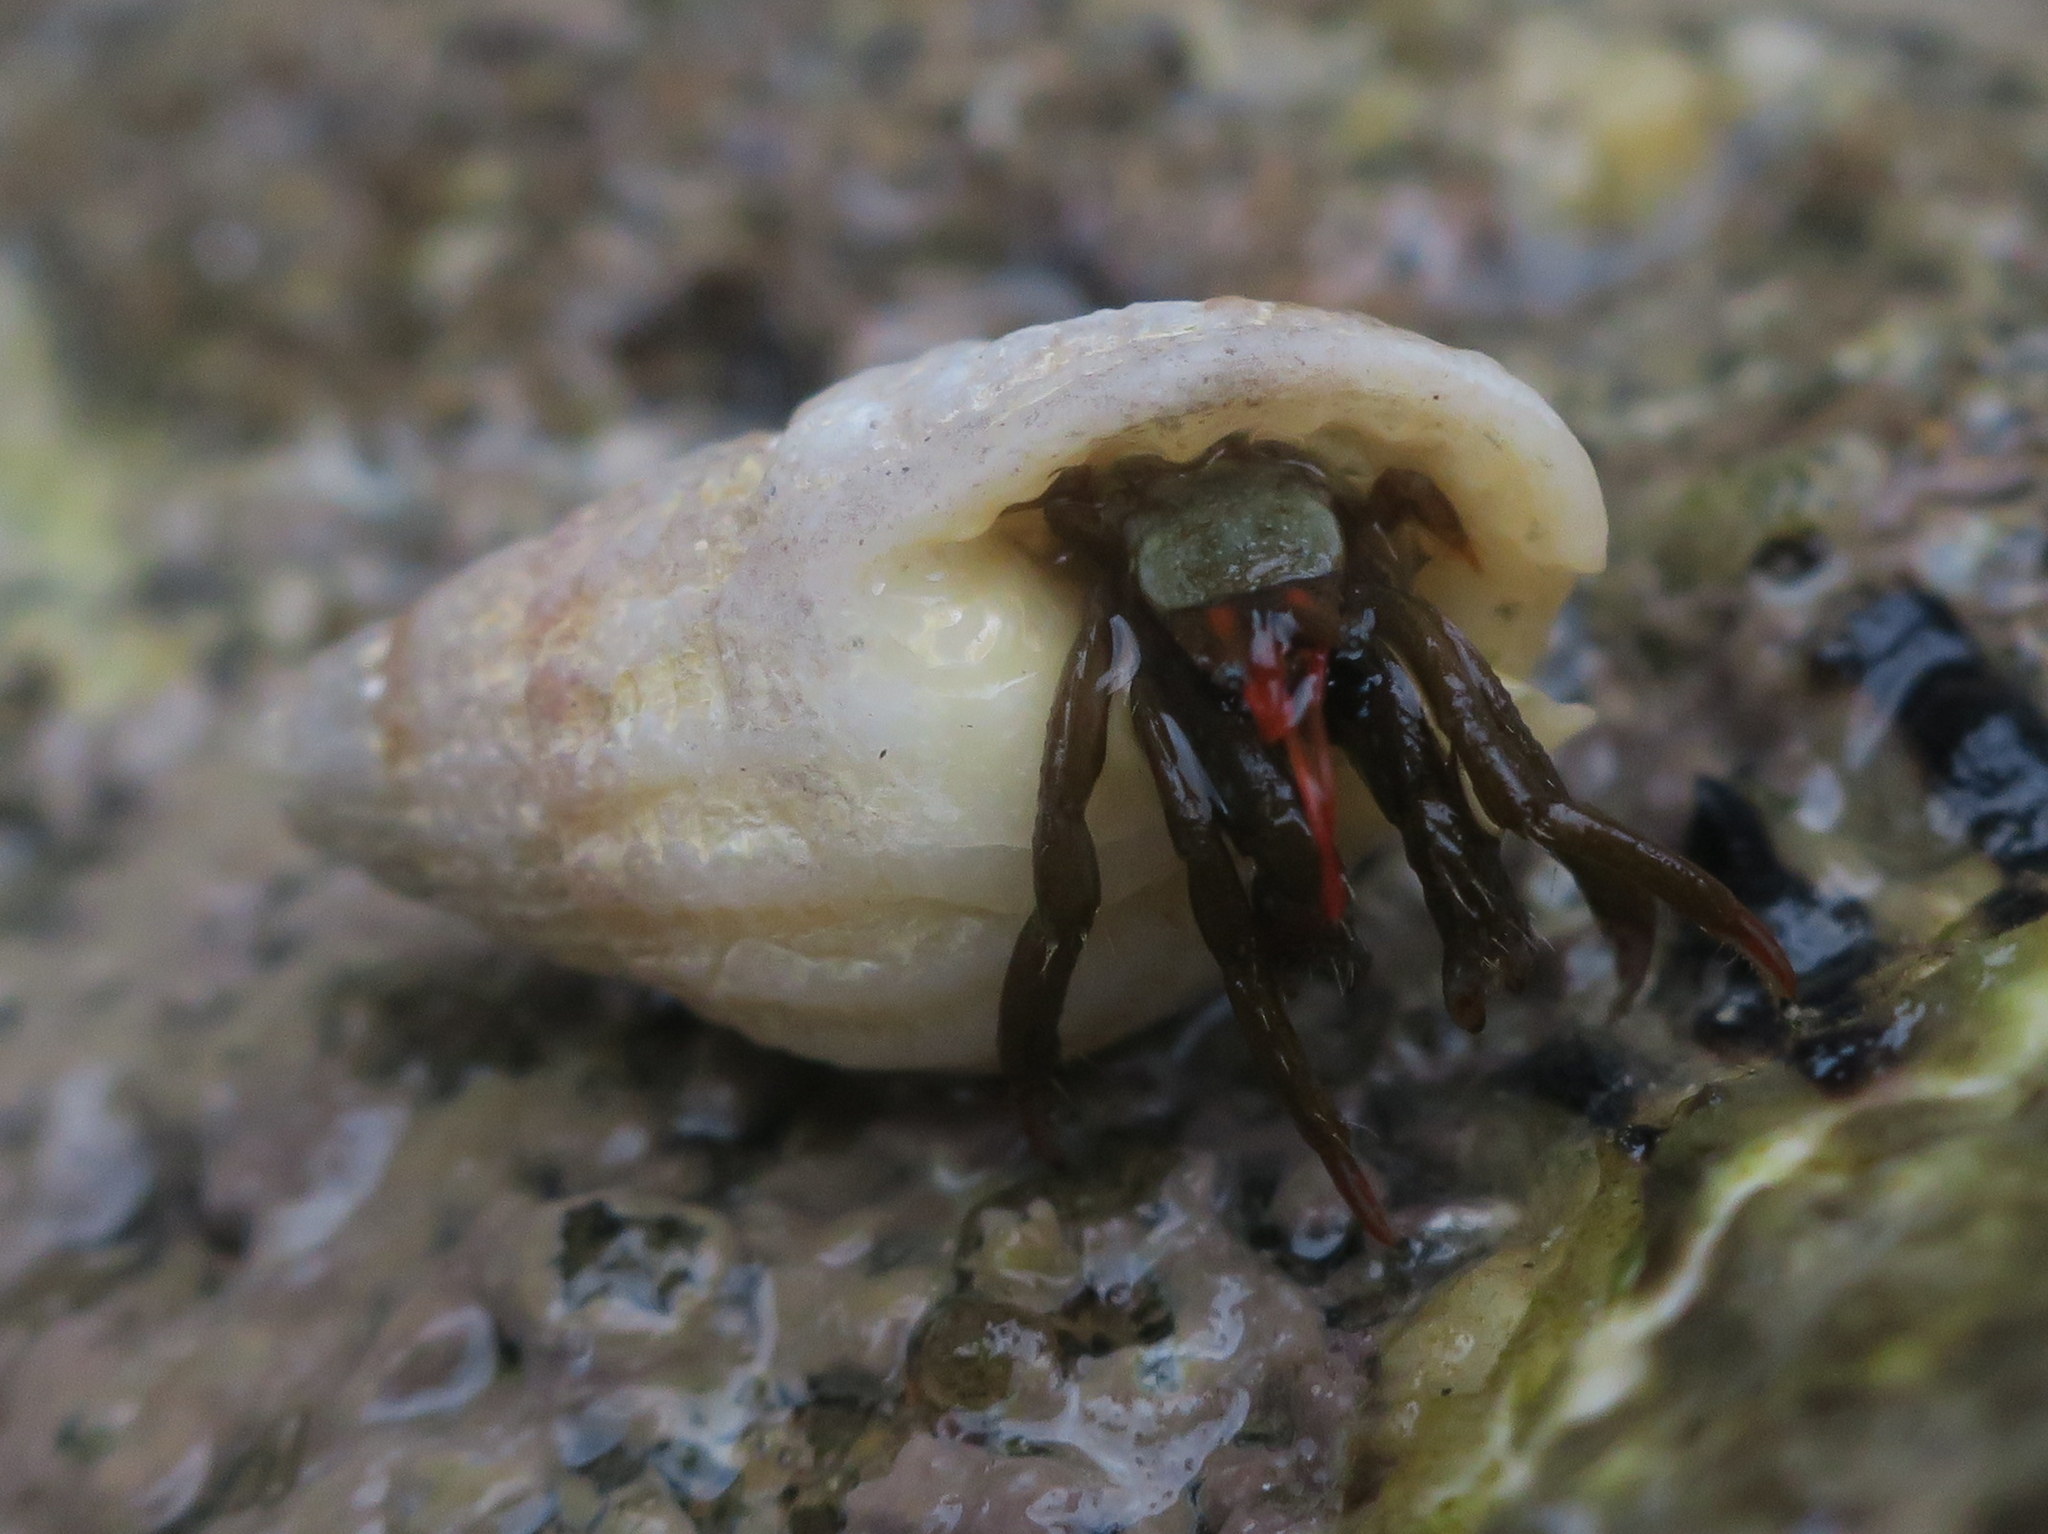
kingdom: Animalia
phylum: Arthropoda
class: Malacostraca
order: Decapoda
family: Diogenidae
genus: Clibanarius
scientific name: Clibanarius erythropus
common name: Hermit crab
